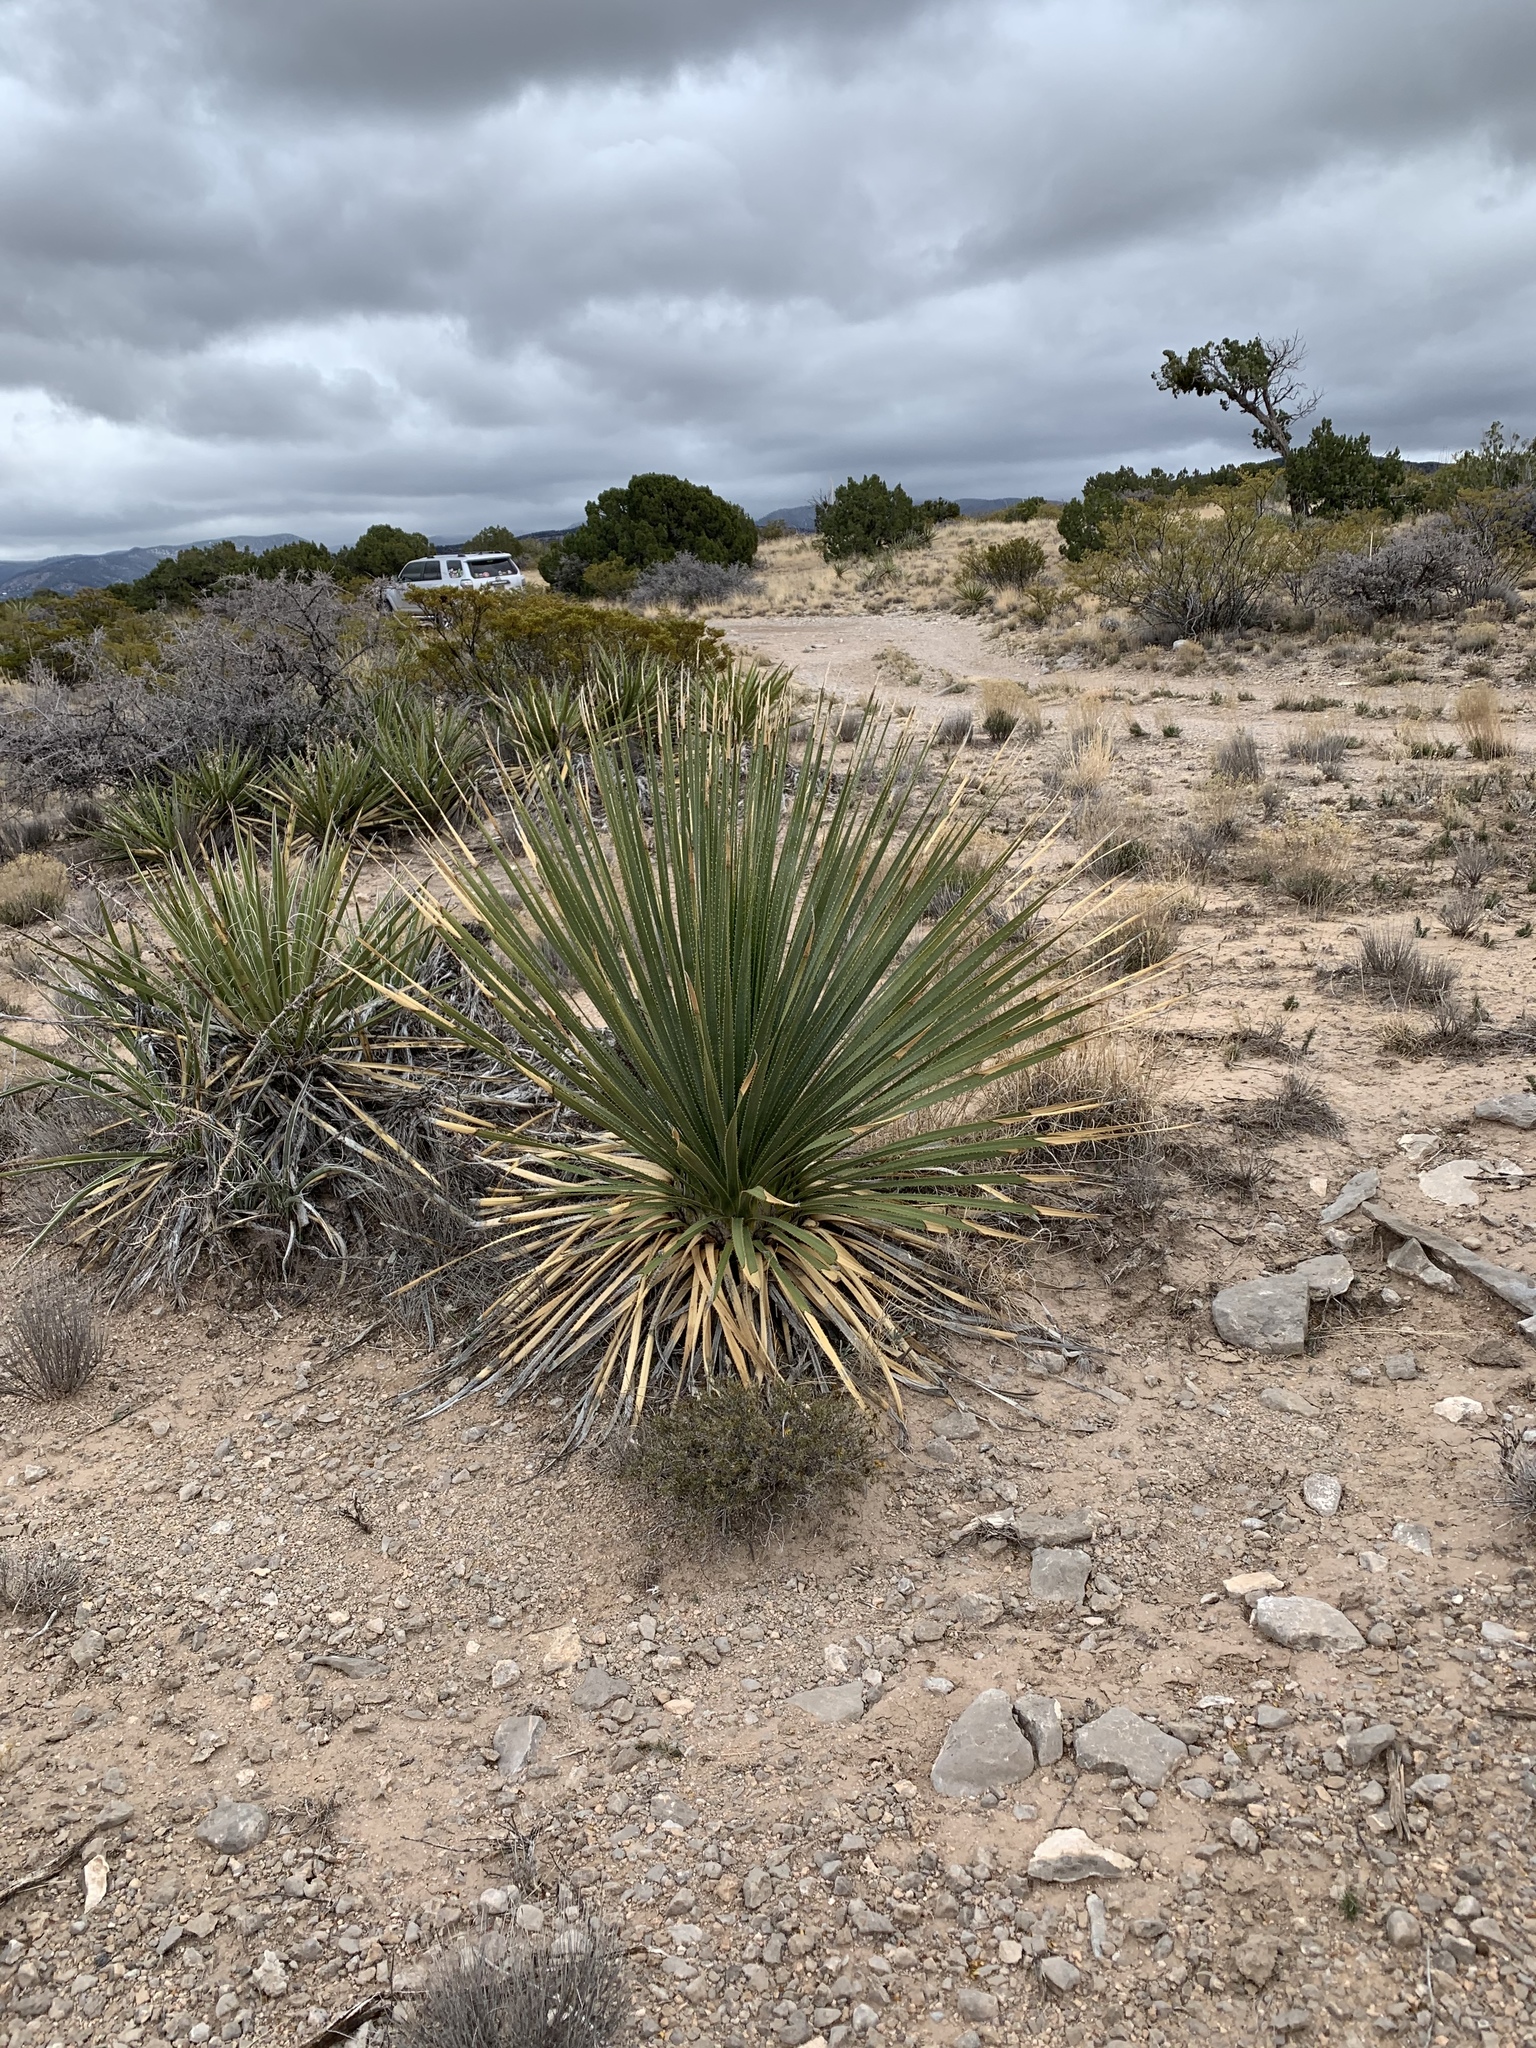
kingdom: Plantae
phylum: Tracheophyta
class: Liliopsida
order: Asparagales
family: Asparagaceae
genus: Dasylirion
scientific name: Dasylirion wheeleri
